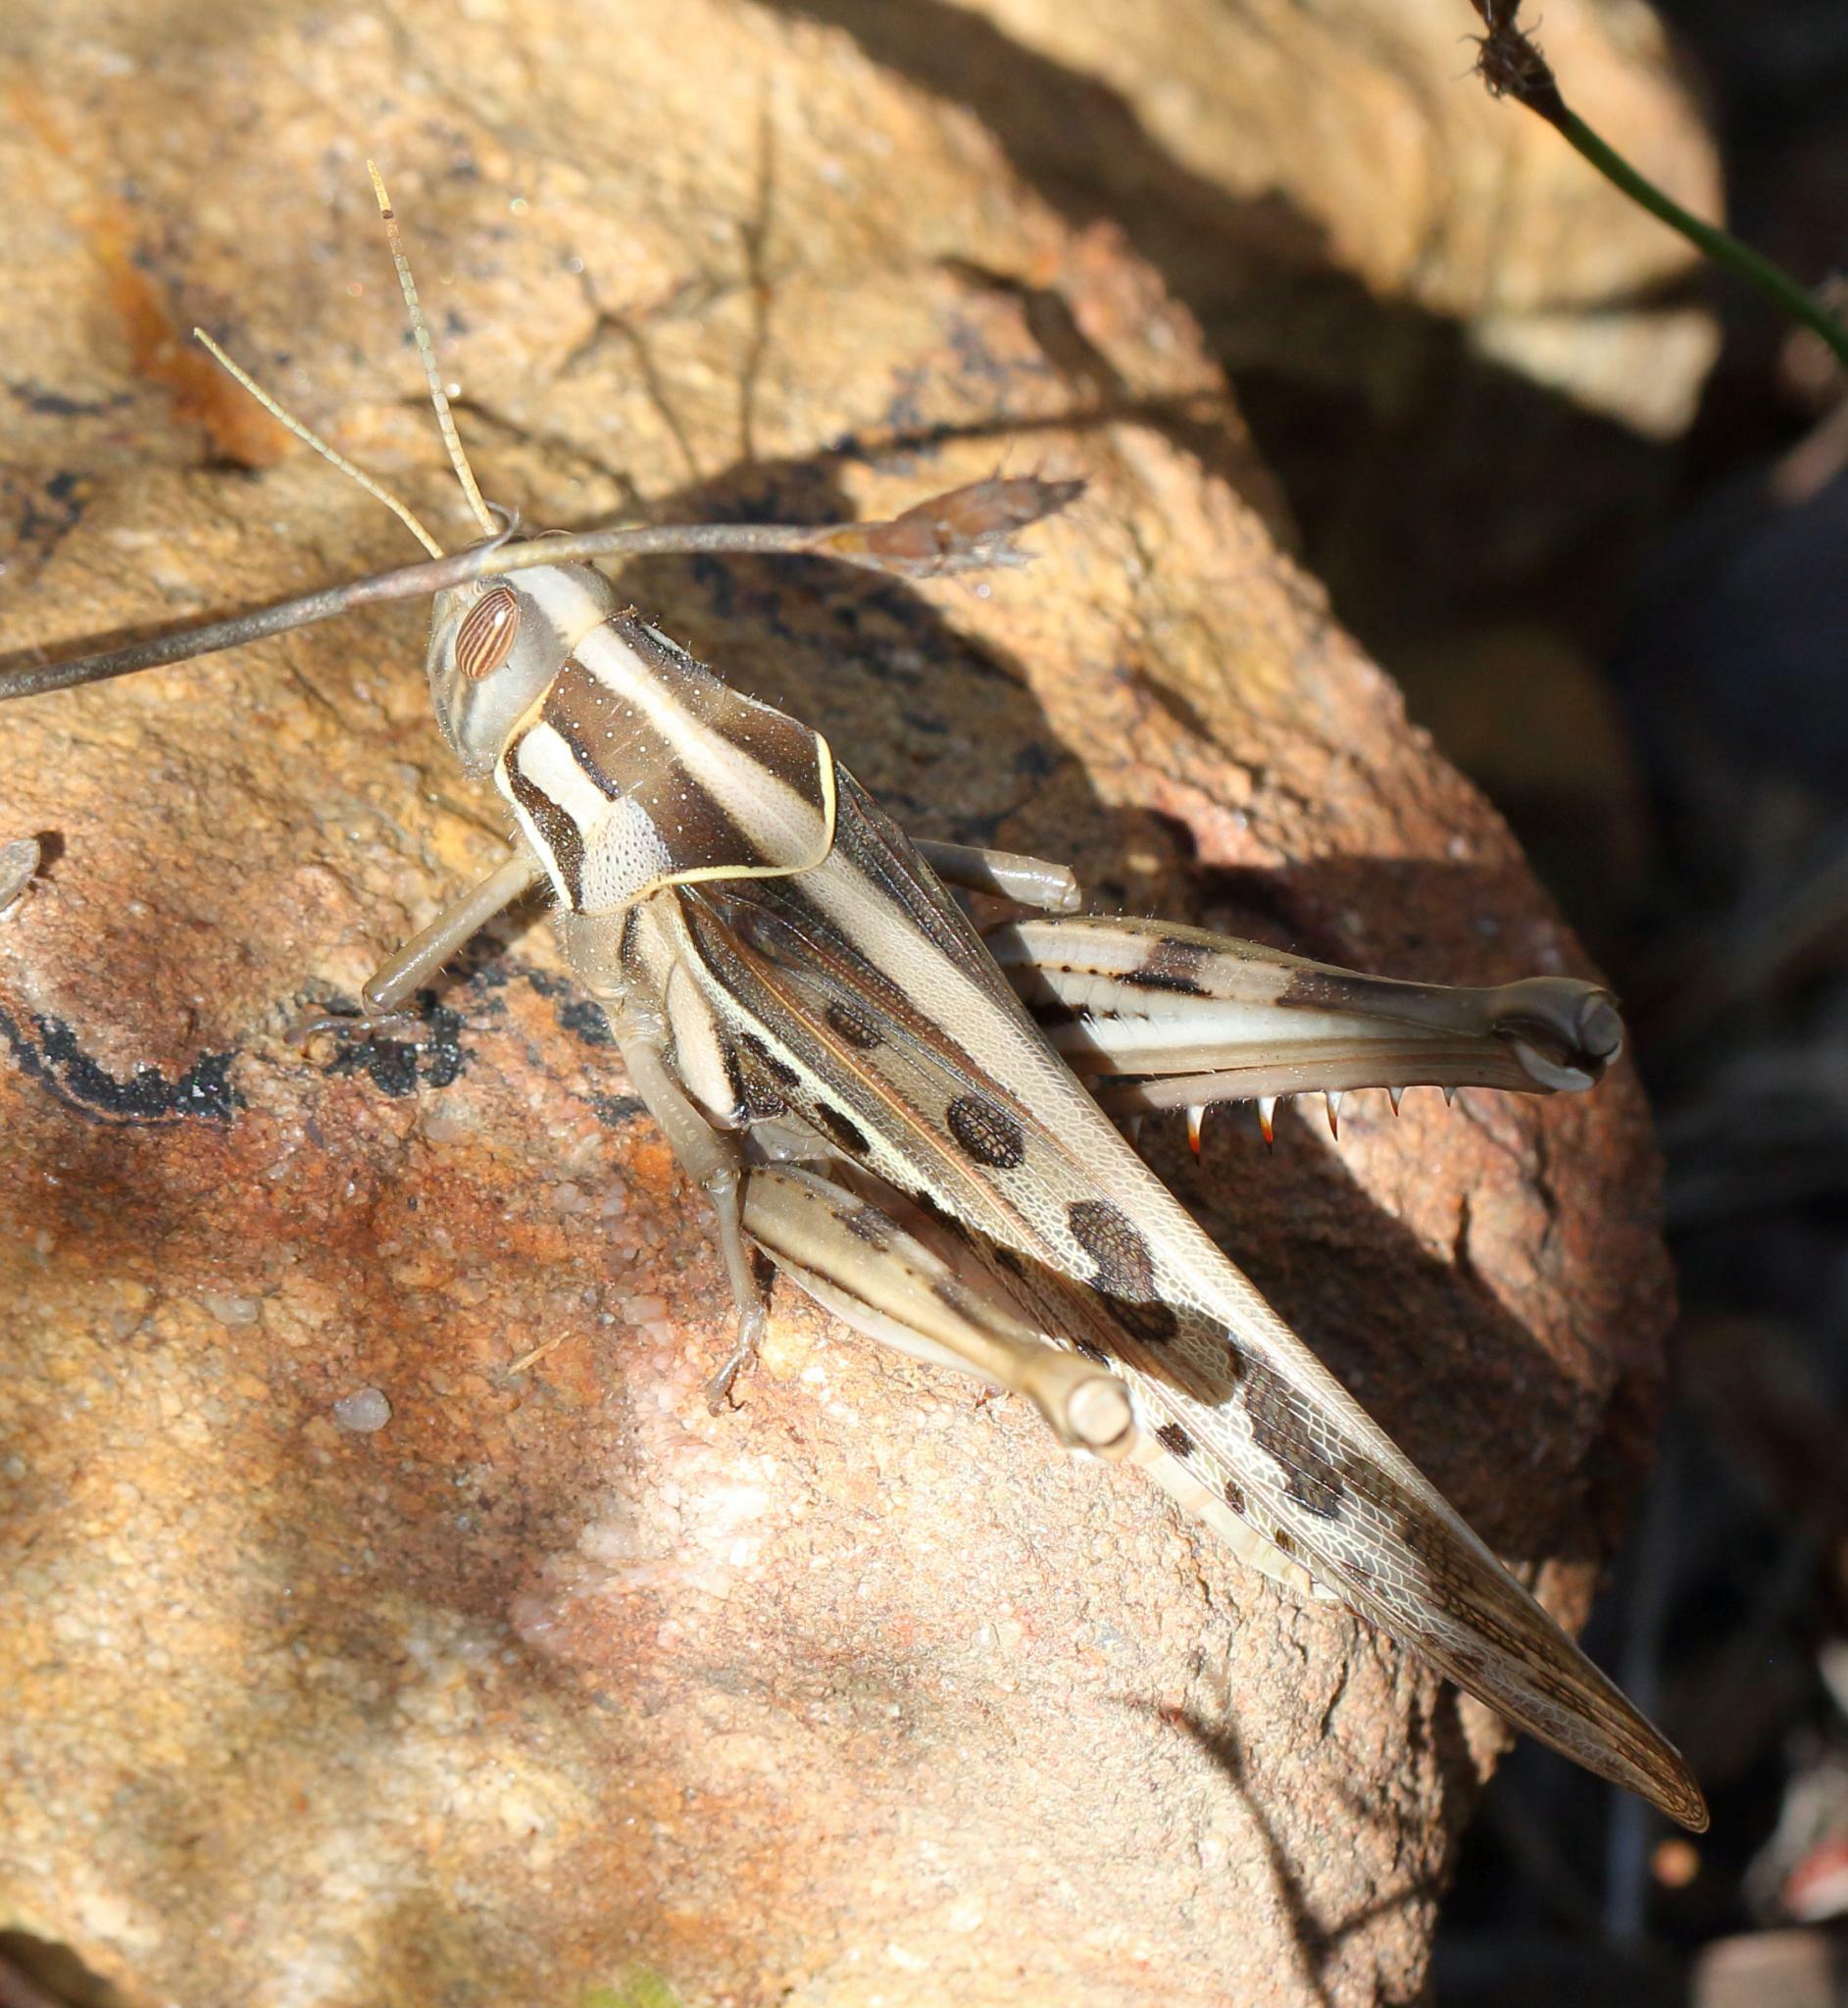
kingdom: Animalia
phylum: Arthropoda
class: Insecta
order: Orthoptera
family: Acrididae
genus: Cyrtacanthacris
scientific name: Cyrtacanthacris tatarica
